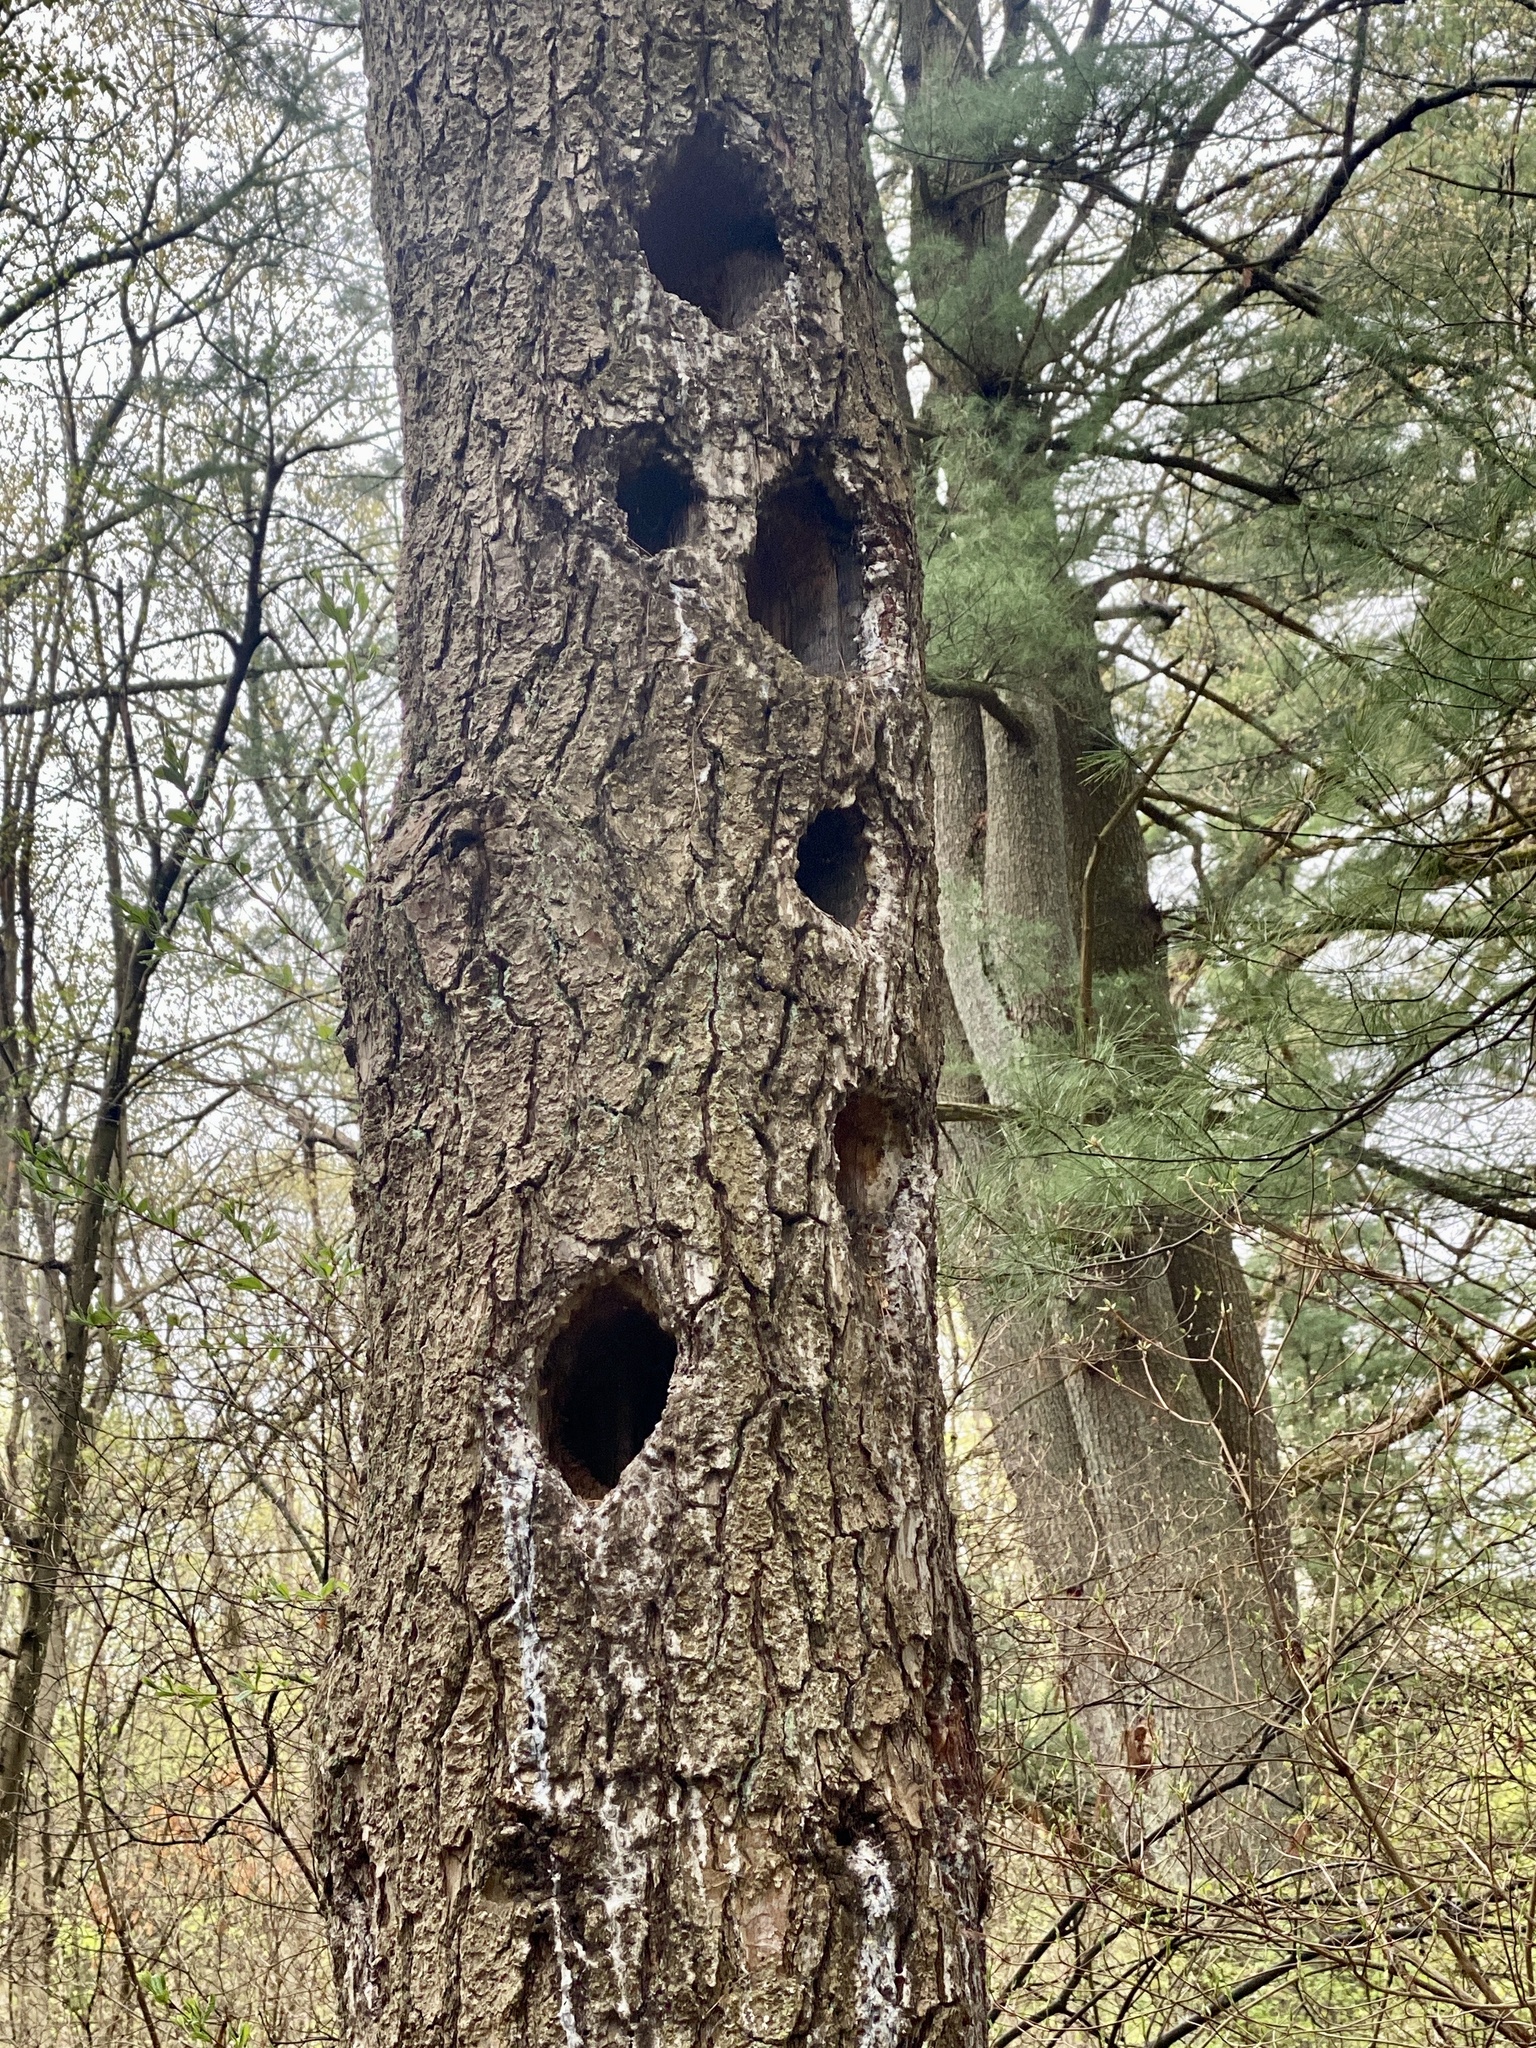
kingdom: Animalia
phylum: Chordata
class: Aves
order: Piciformes
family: Picidae
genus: Dryocopus
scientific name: Dryocopus pileatus
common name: Pileated woodpecker
